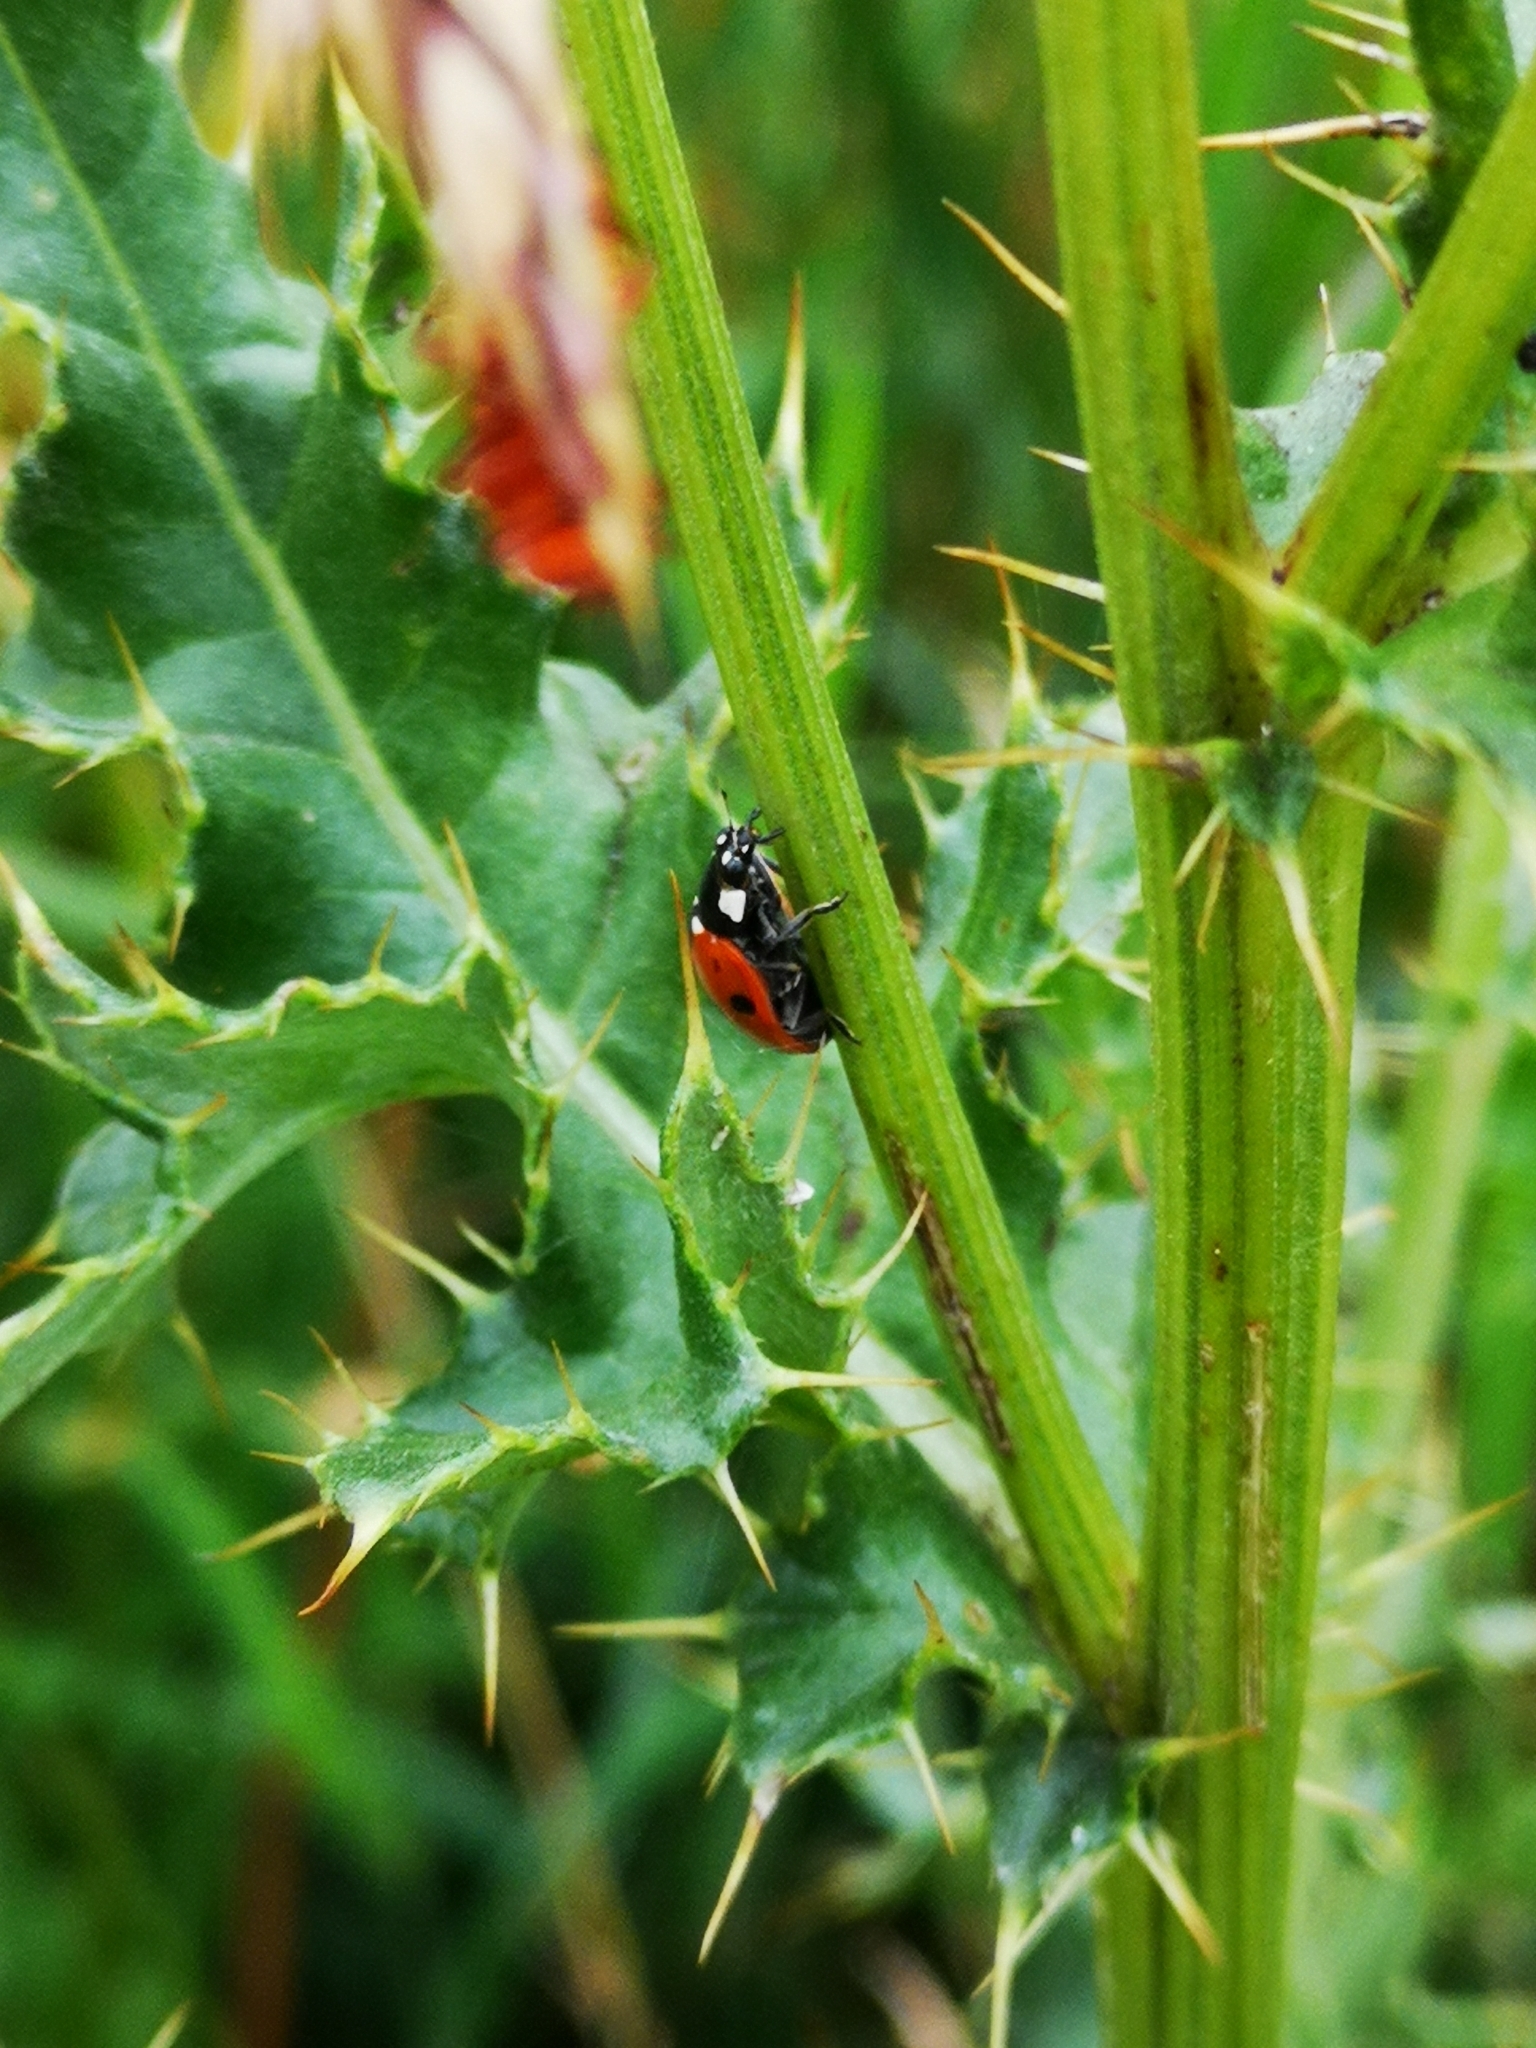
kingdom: Animalia
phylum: Arthropoda
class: Insecta
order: Coleoptera
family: Coccinellidae
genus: Coccinella
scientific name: Coccinella septempunctata
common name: Sevenspotted lady beetle
